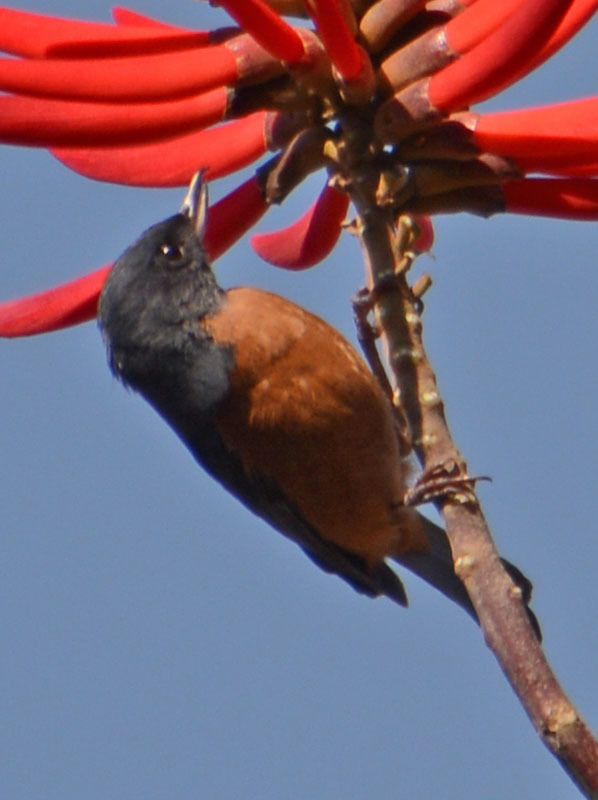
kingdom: Animalia
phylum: Chordata
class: Aves
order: Passeriformes
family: Thraupidae
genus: Diglossa
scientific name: Diglossa baritula
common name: Cinnamon-bellied flowerpiercer
